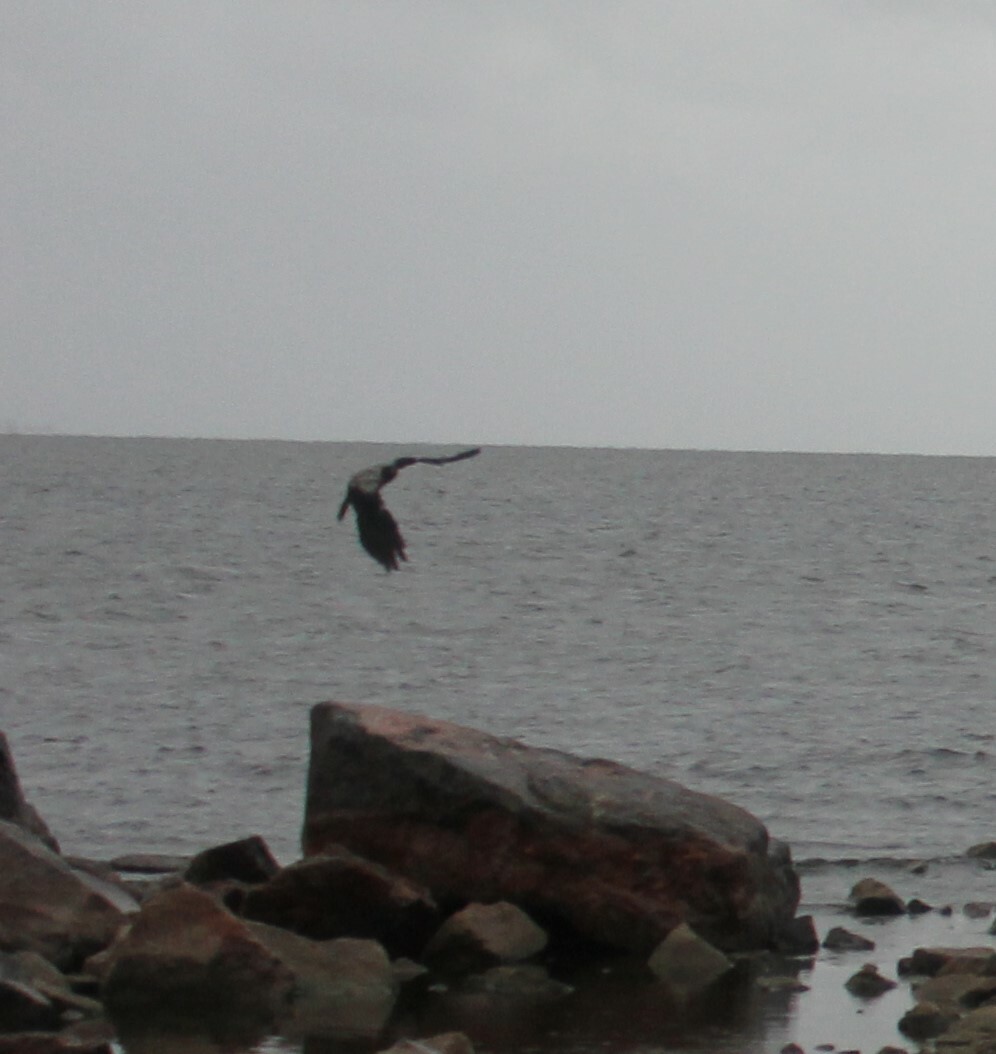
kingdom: Animalia
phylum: Chordata
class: Aves
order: Passeriformes
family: Corvidae
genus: Corvus
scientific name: Corvus cornix
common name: Hooded crow
